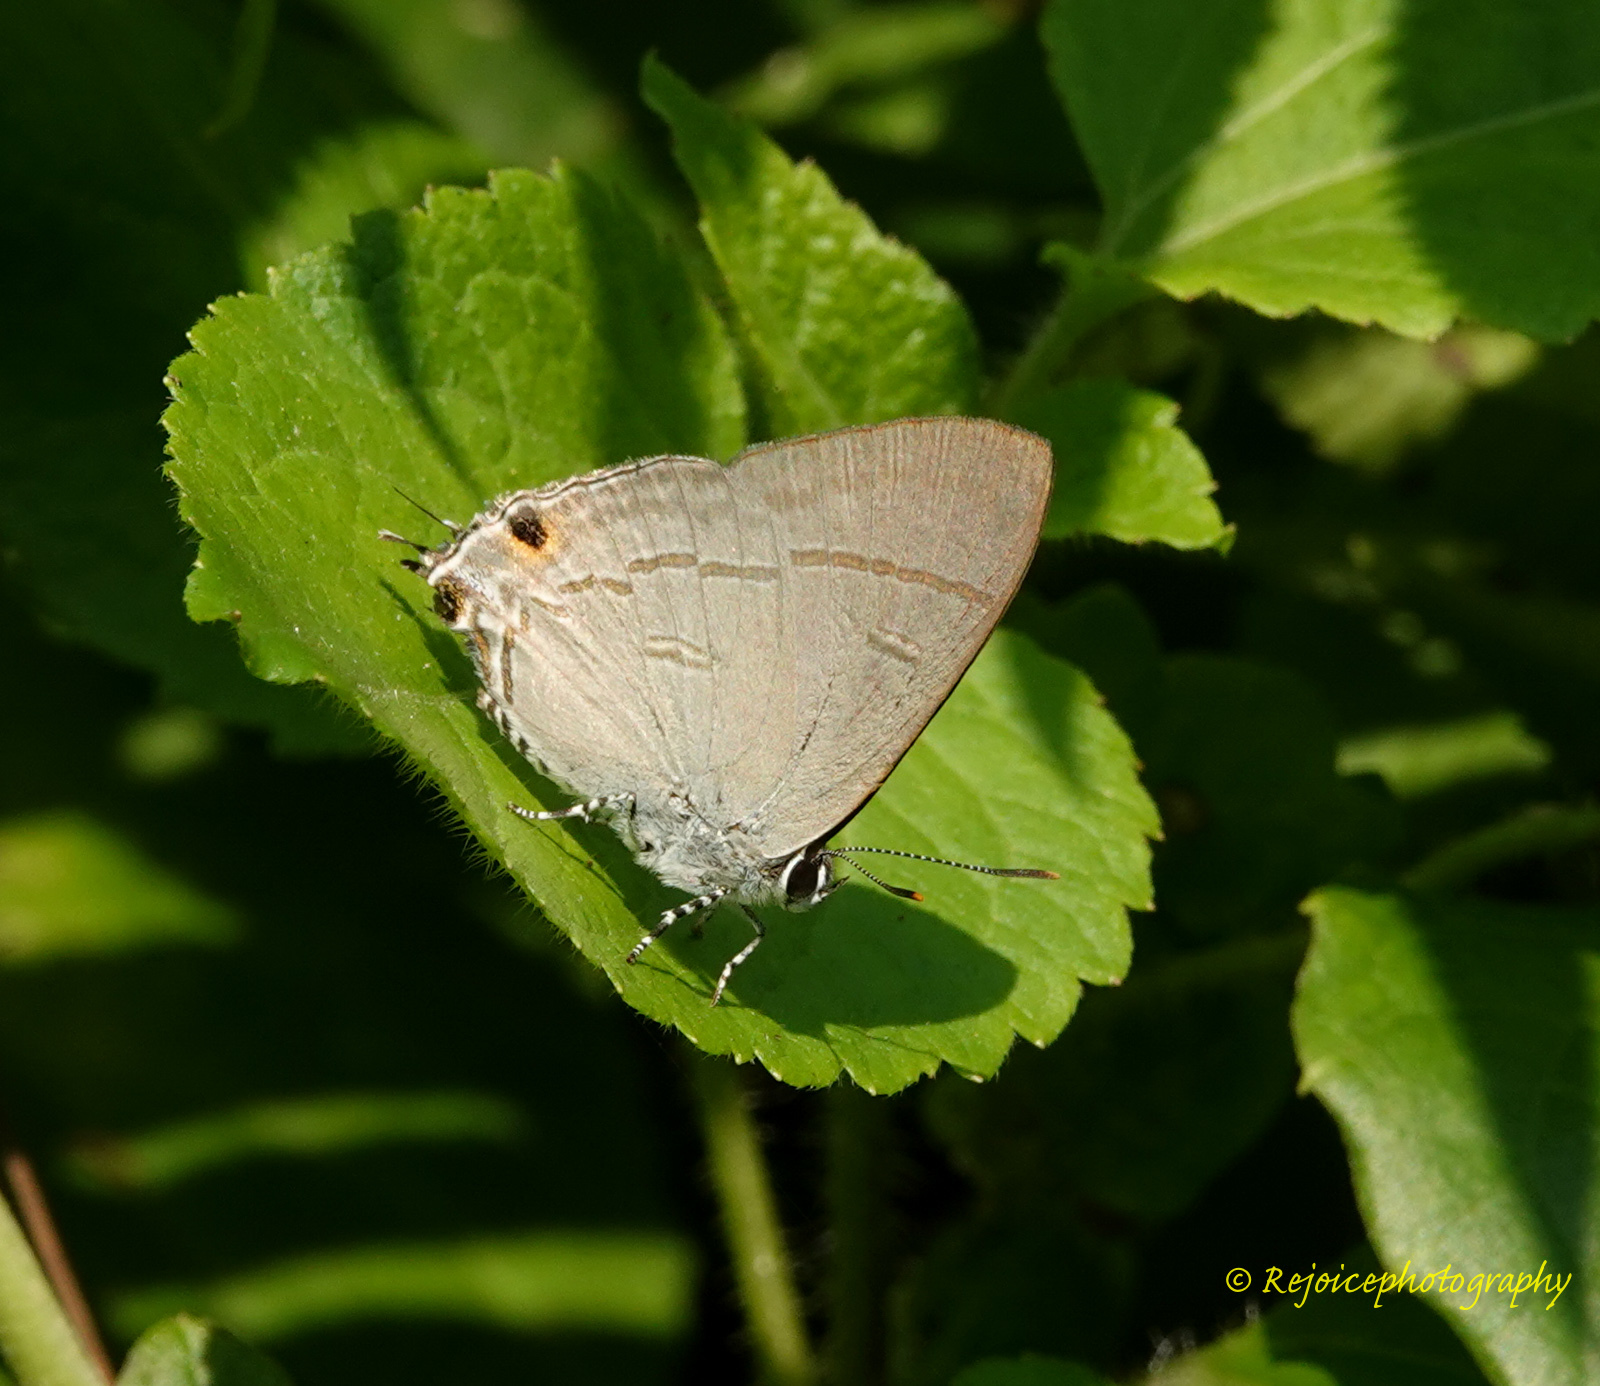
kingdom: Animalia
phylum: Arthropoda
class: Insecta
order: Lepidoptera
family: Lycaenidae
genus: Hypolycaena
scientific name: Hypolycaena erylus
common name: Common tit
